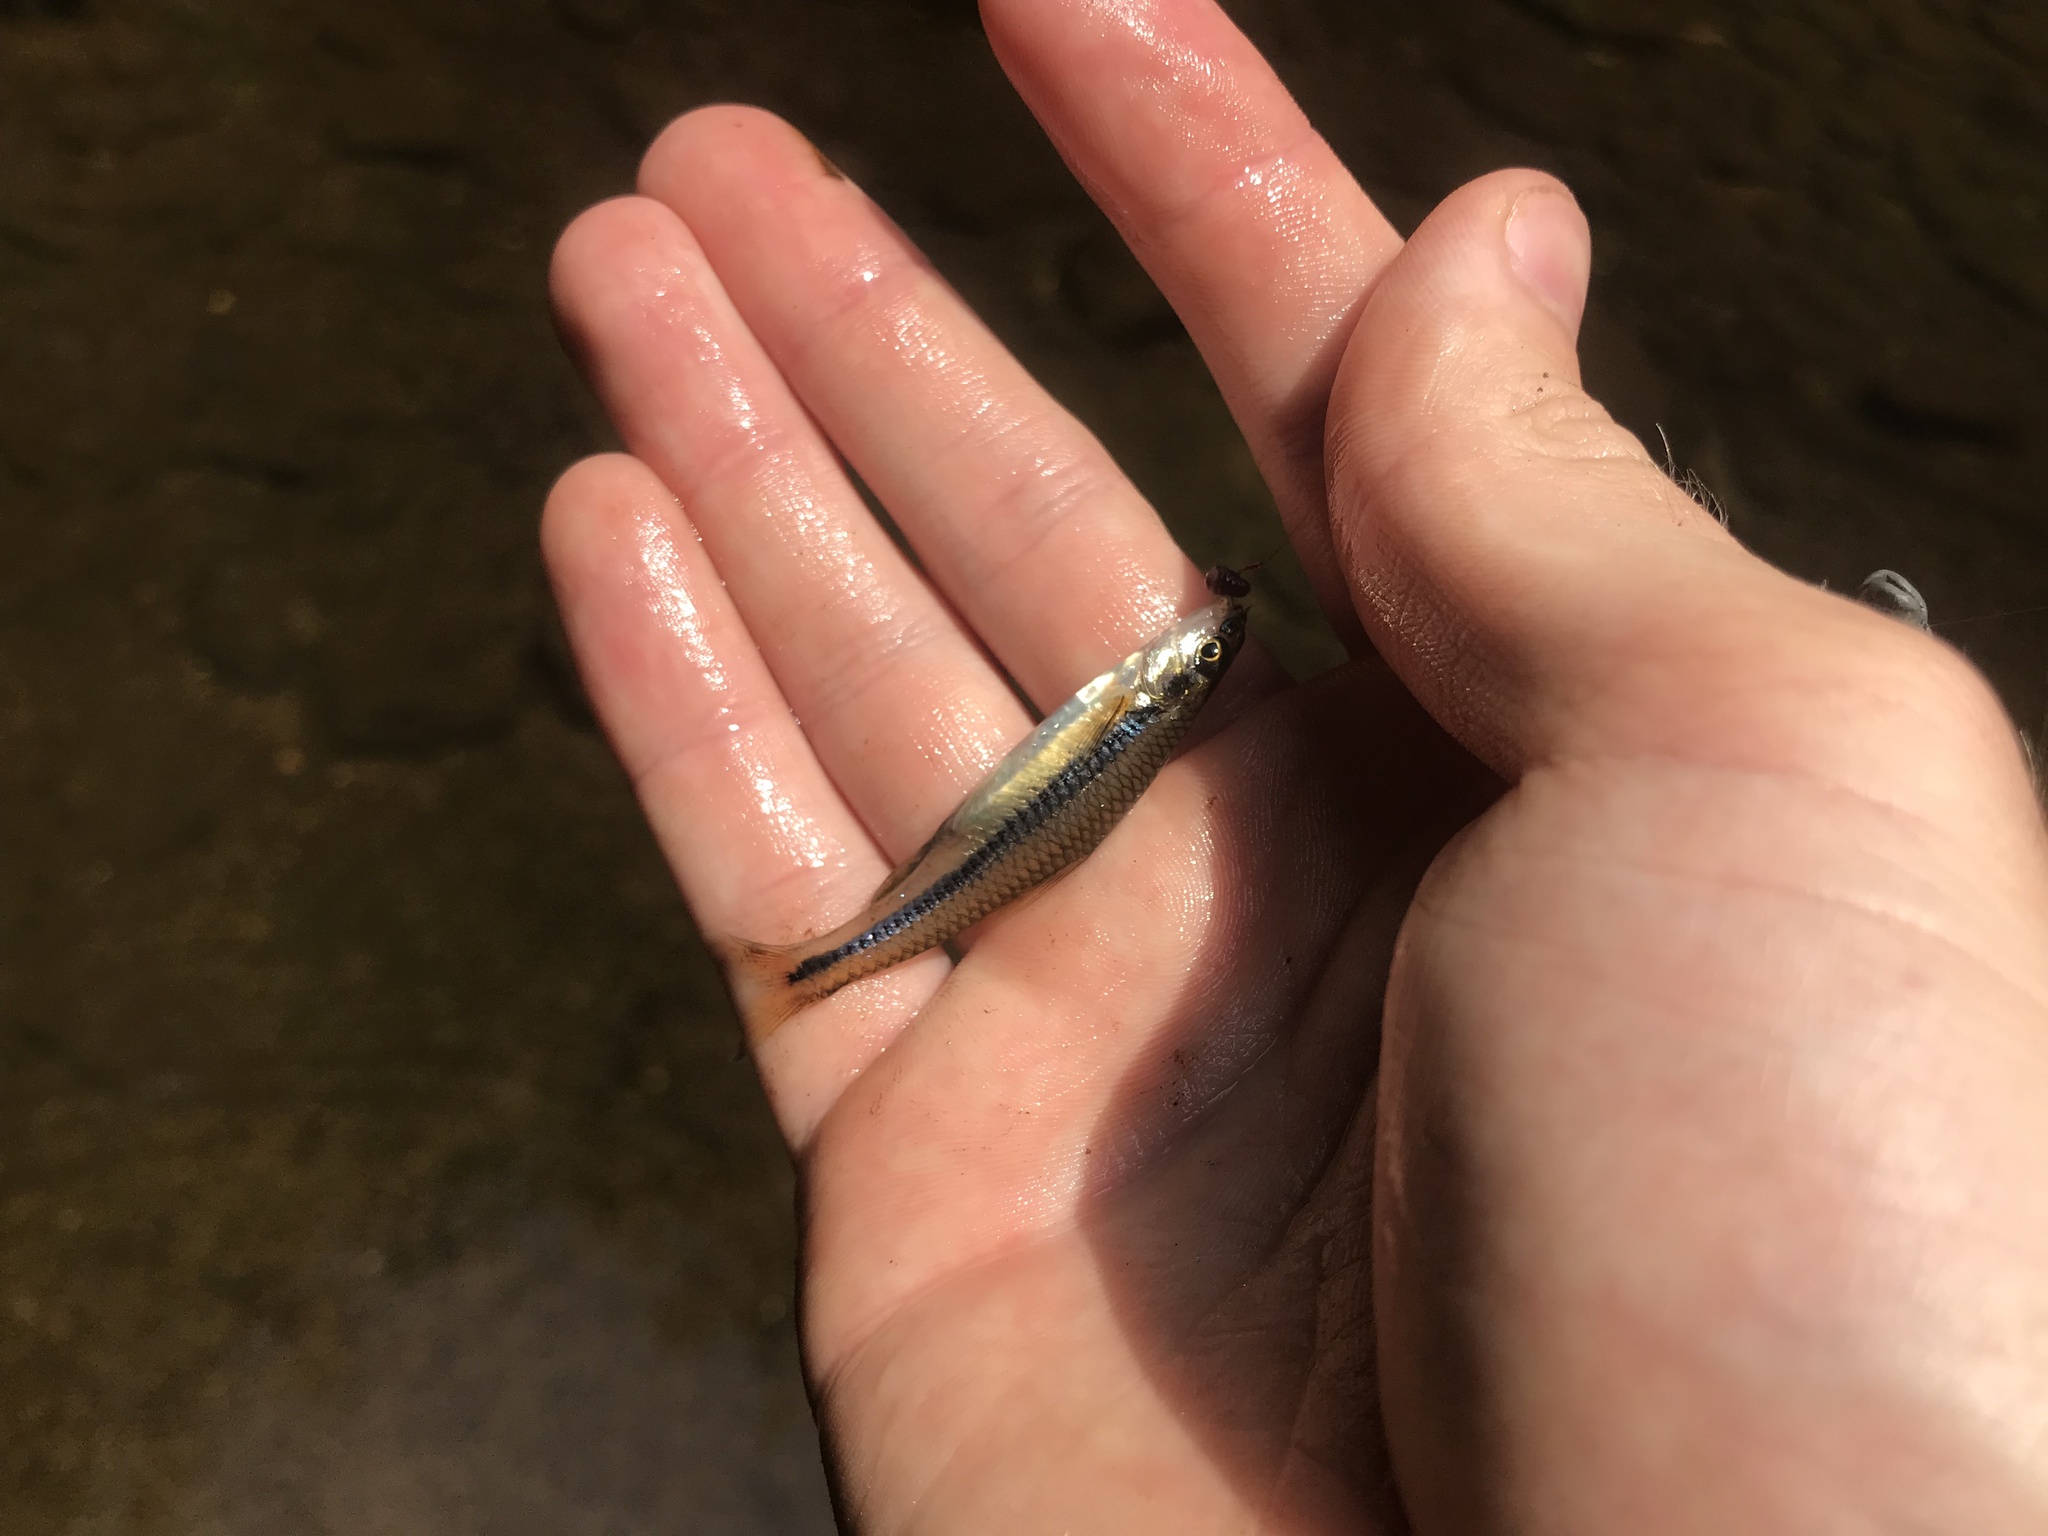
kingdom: Animalia
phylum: Chordata
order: Cypriniformes
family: Cyprinidae
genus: Notropis
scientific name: Notropis
